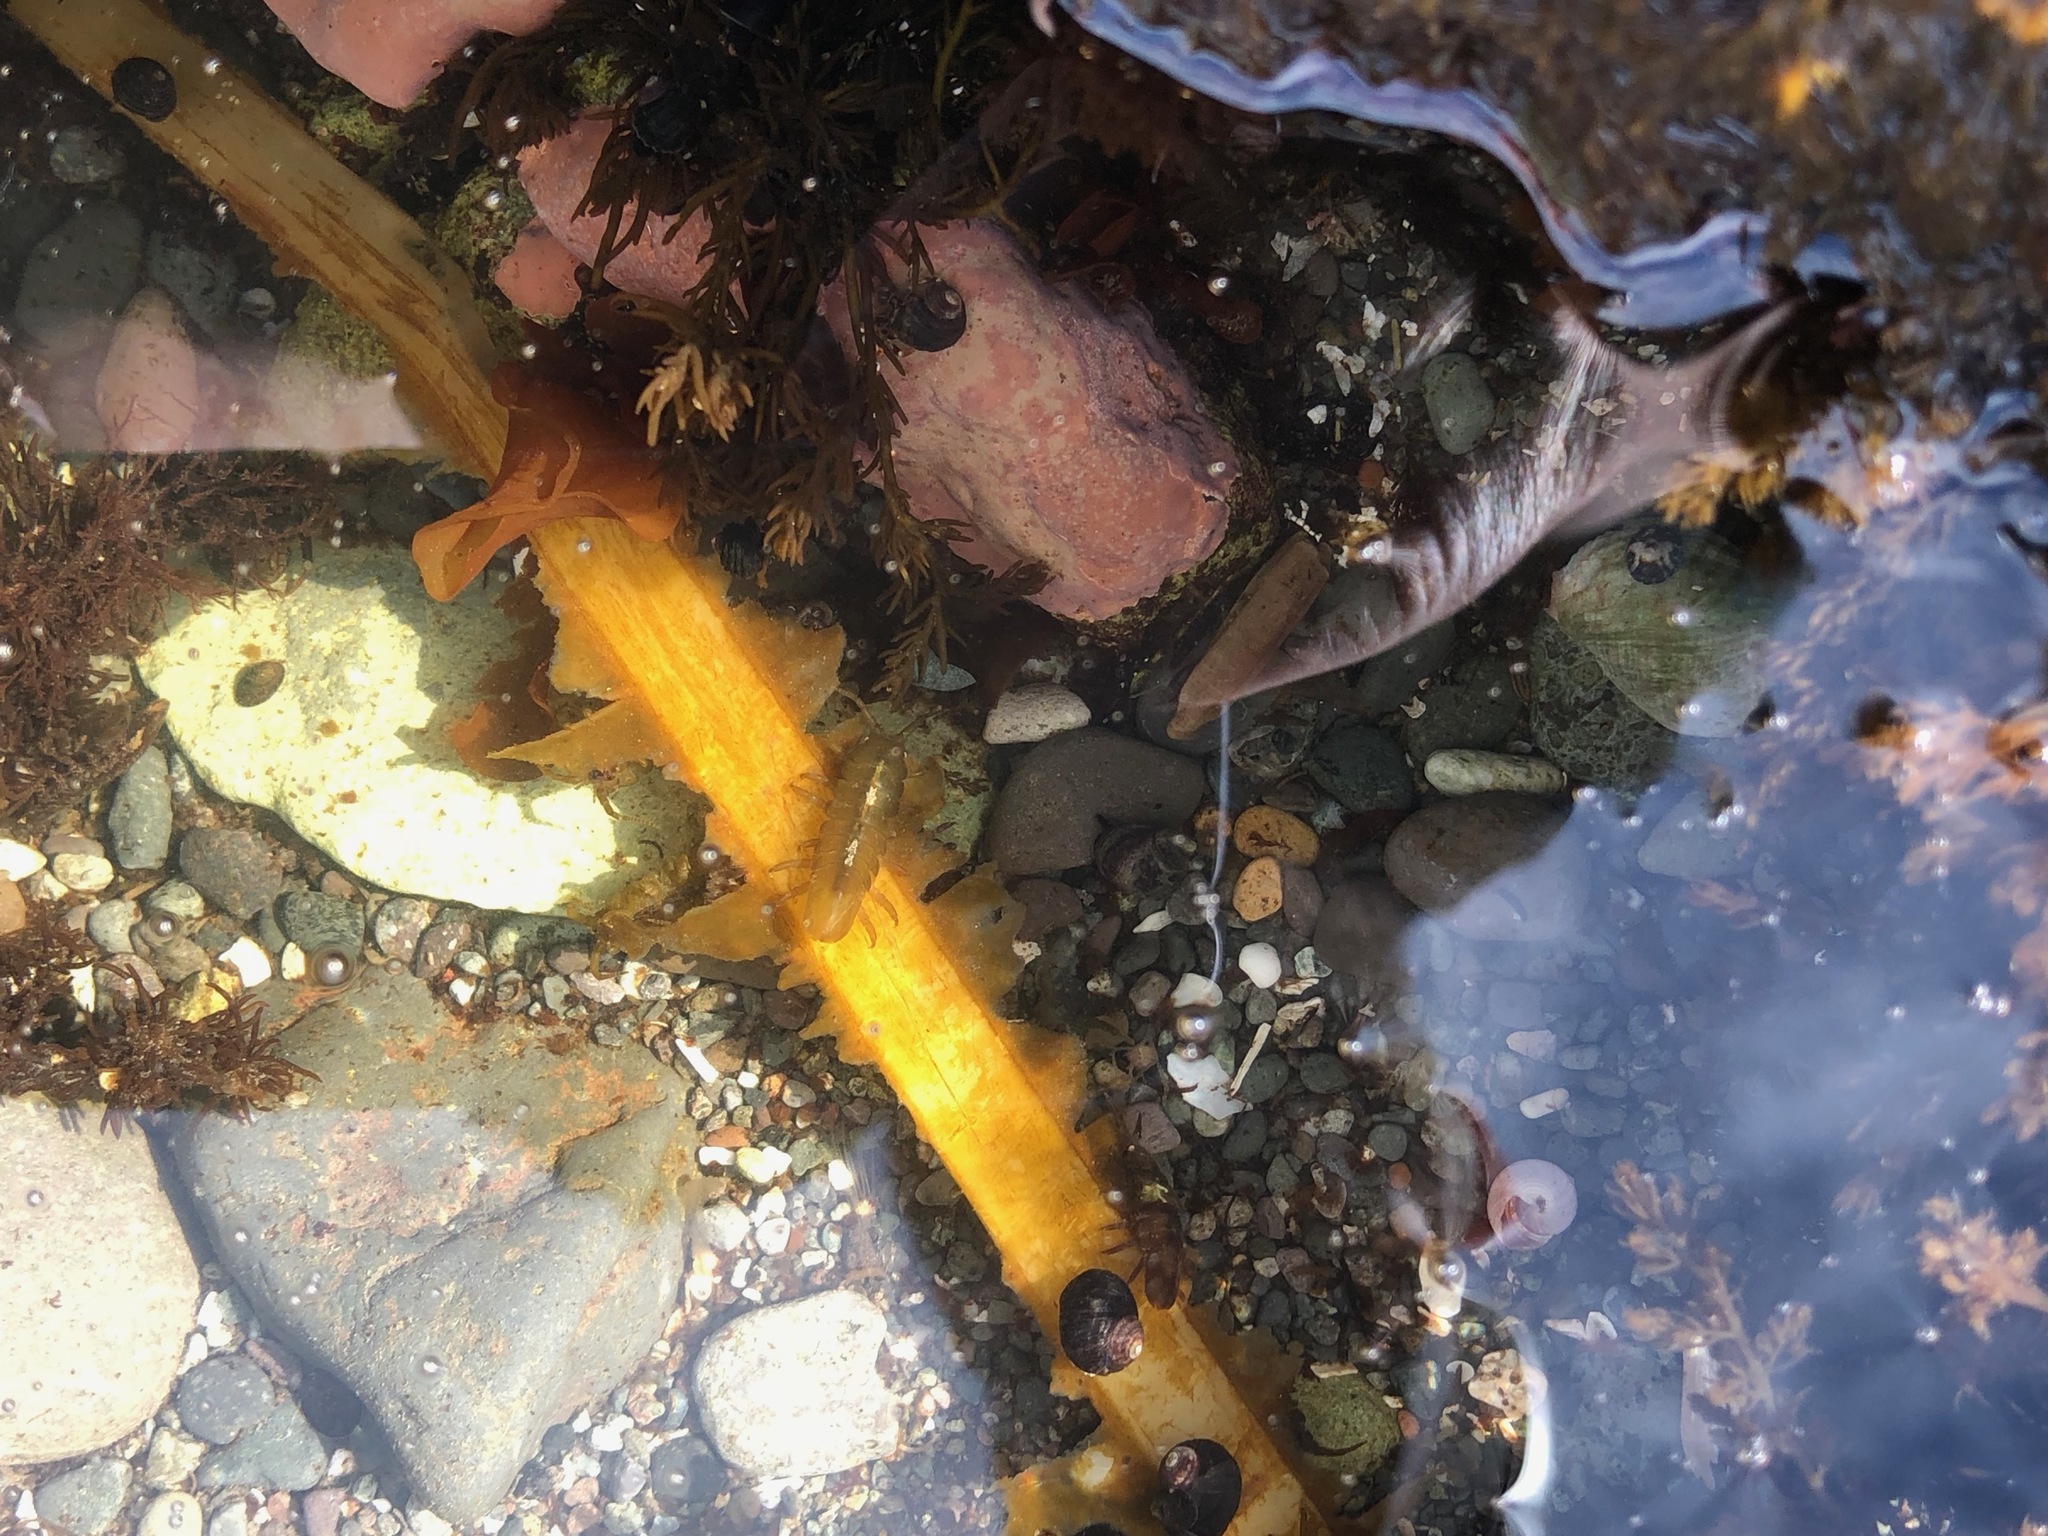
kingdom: Animalia
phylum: Arthropoda
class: Malacostraca
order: Isopoda
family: Idoteidae
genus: Pentidotea
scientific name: Pentidotea wosnesenskii
